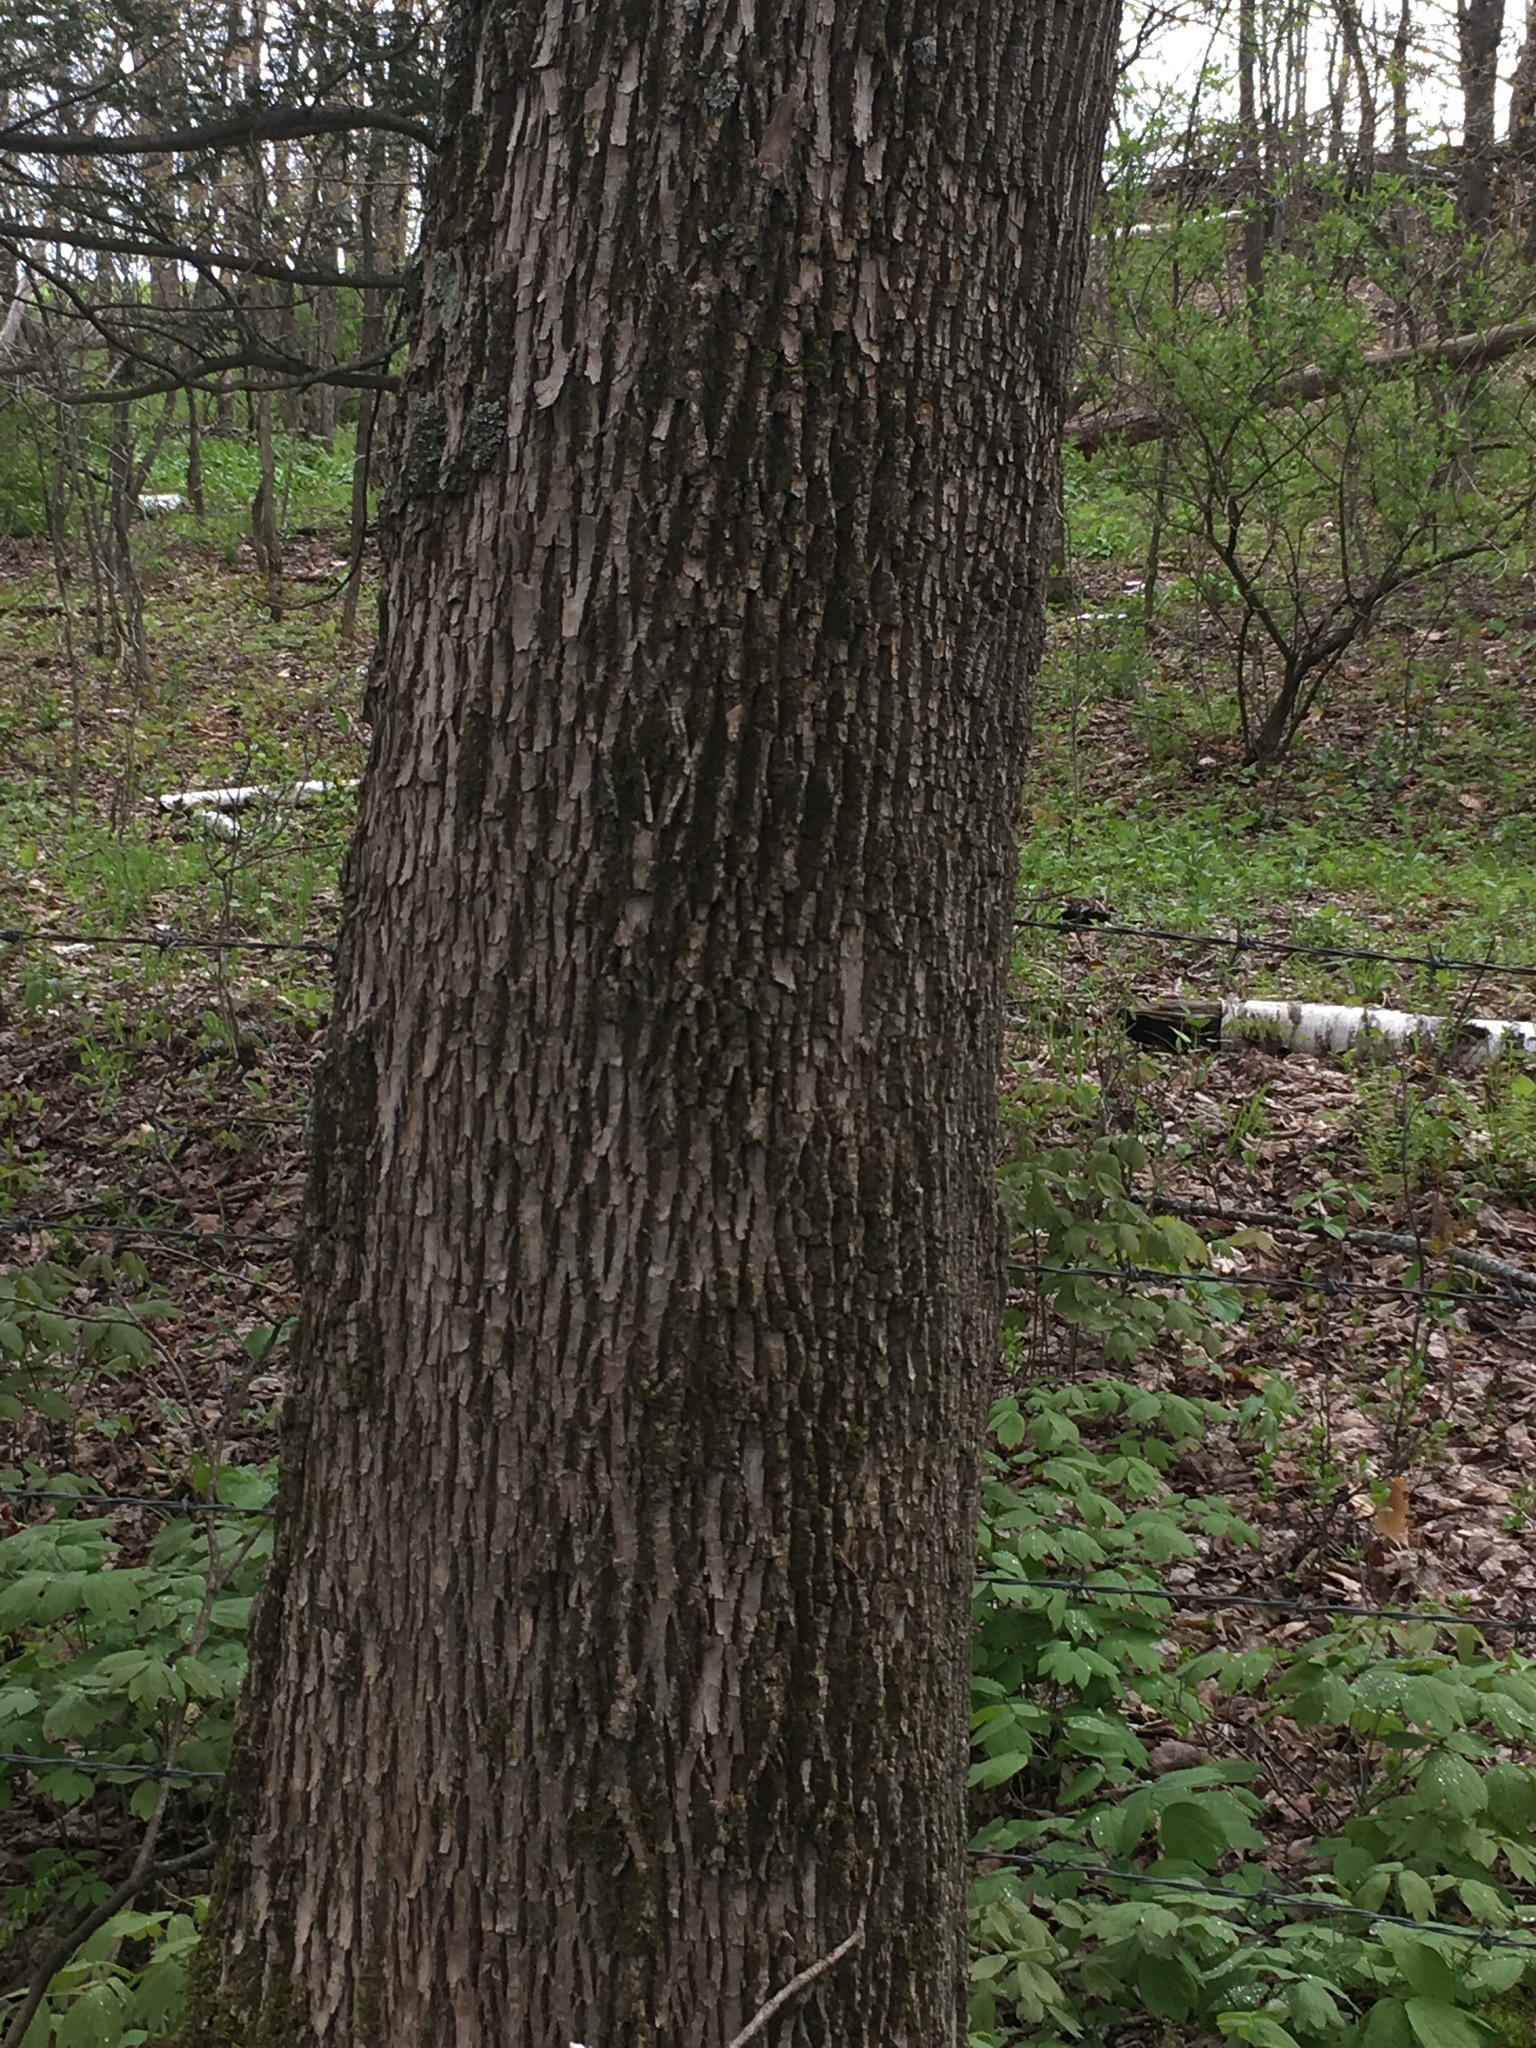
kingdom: Plantae
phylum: Tracheophyta
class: Magnoliopsida
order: Lamiales
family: Oleaceae
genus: Fraxinus
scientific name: Fraxinus americana
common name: White ash
